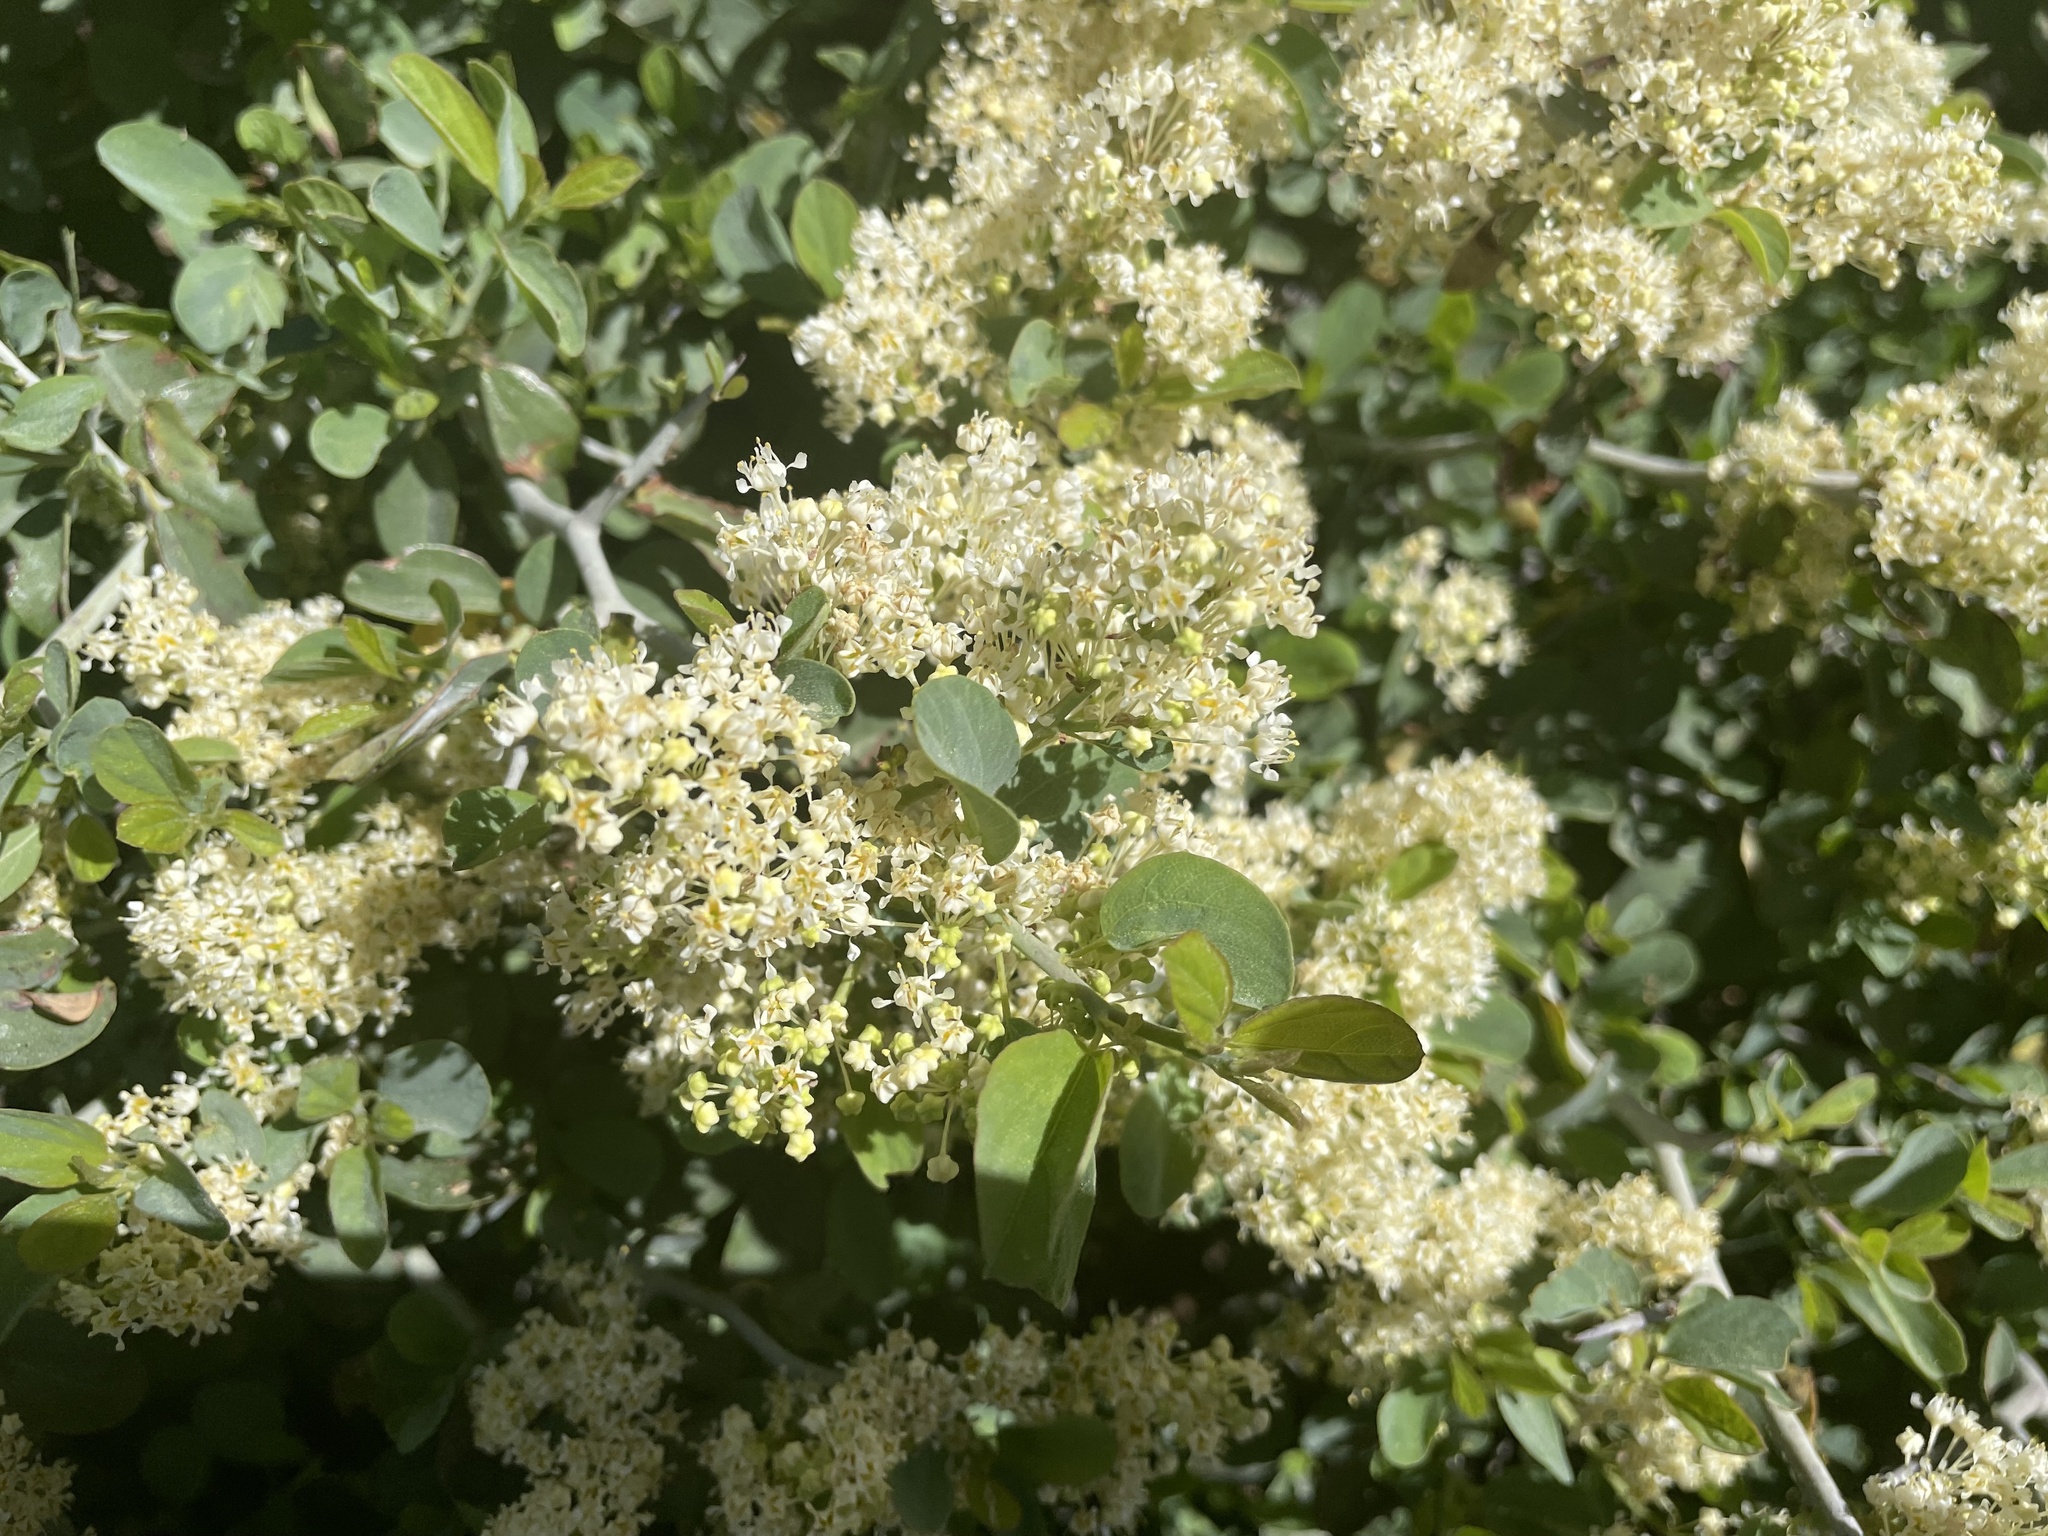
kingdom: Plantae
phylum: Tracheophyta
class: Magnoliopsida
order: Rosales
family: Rhamnaceae
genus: Ceanothus
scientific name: Ceanothus cordulatus
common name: Mountain whitethorn
